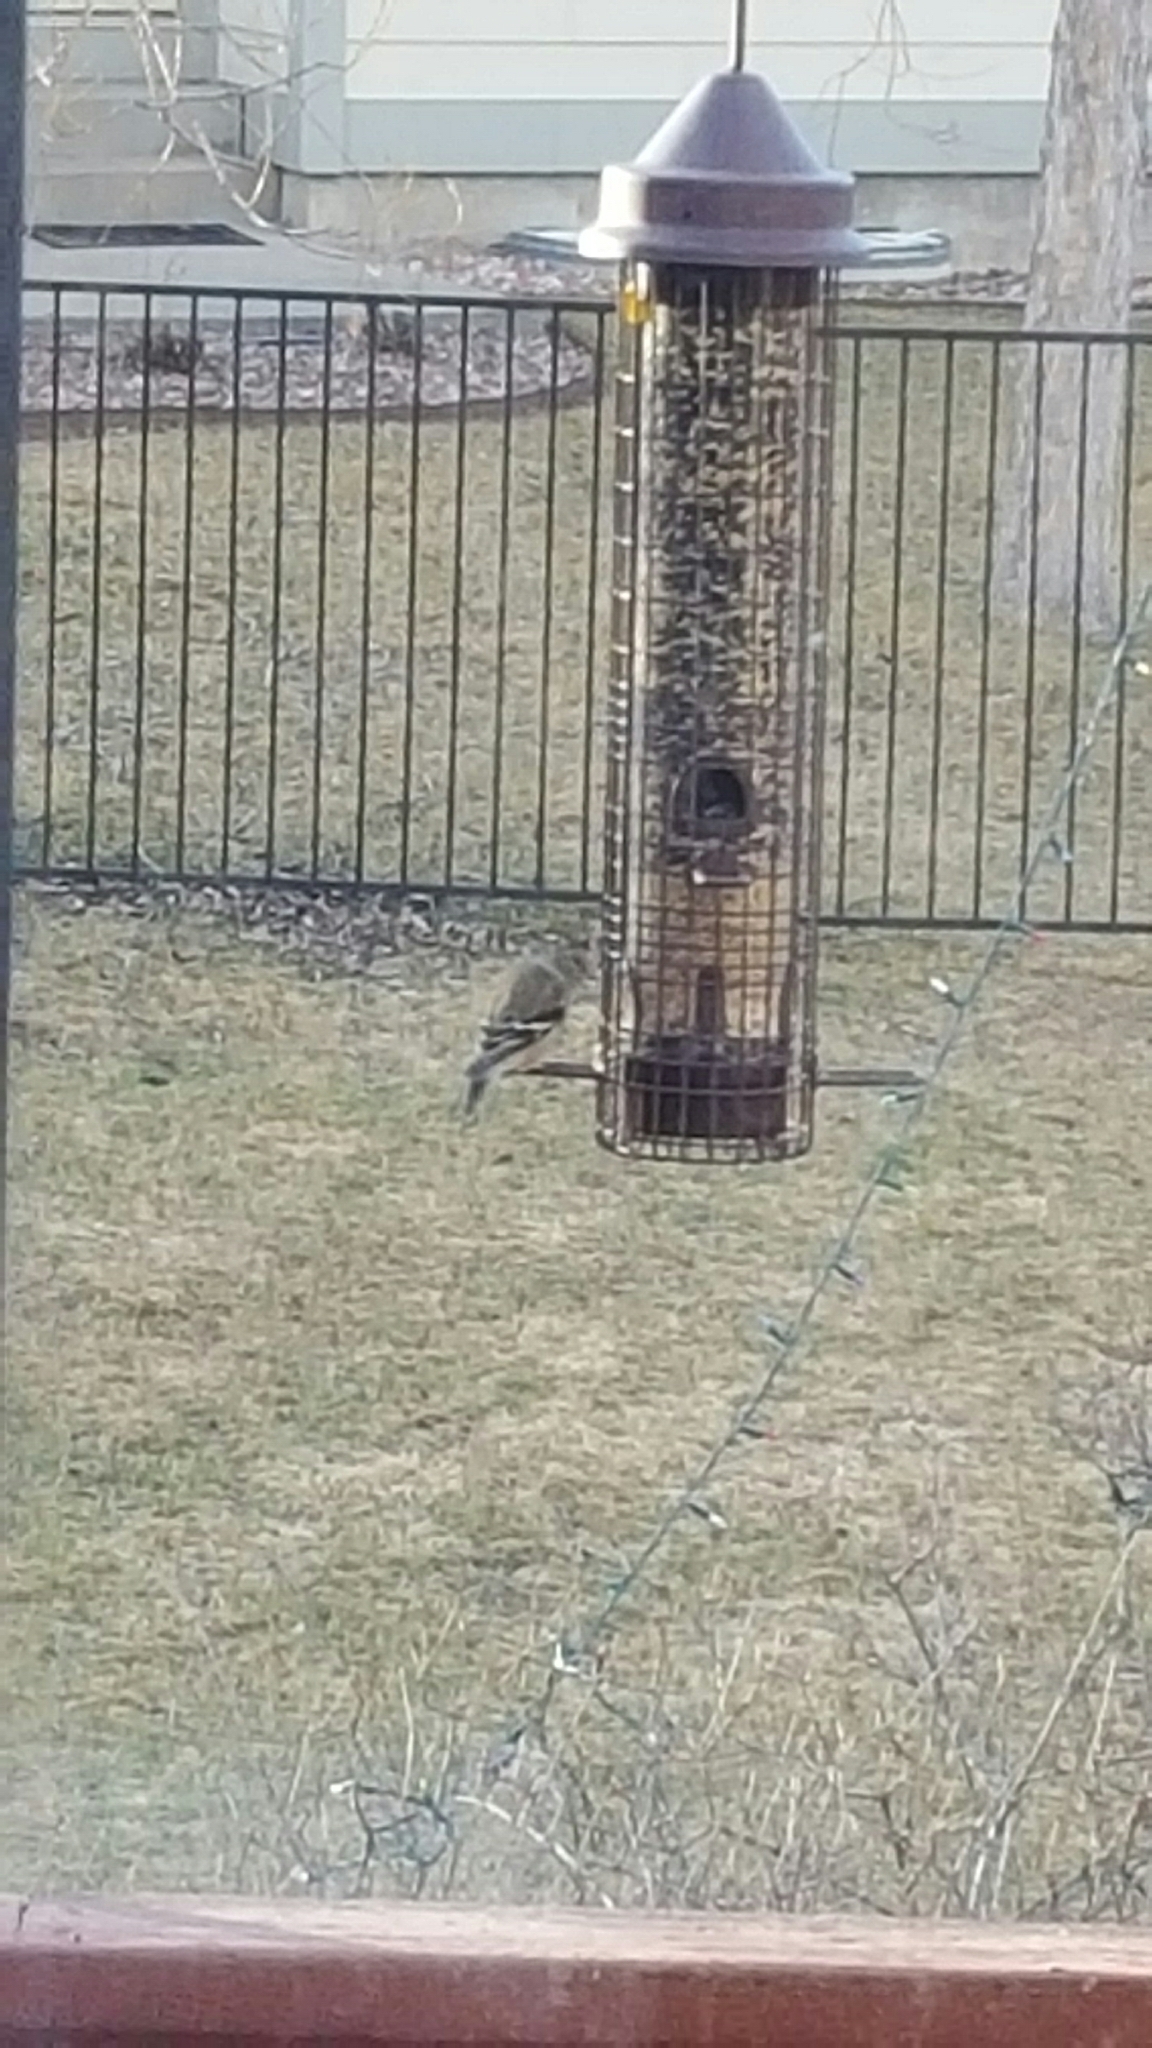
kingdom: Animalia
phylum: Chordata
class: Aves
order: Passeriformes
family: Fringillidae
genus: Spinus
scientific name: Spinus tristis
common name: American goldfinch
